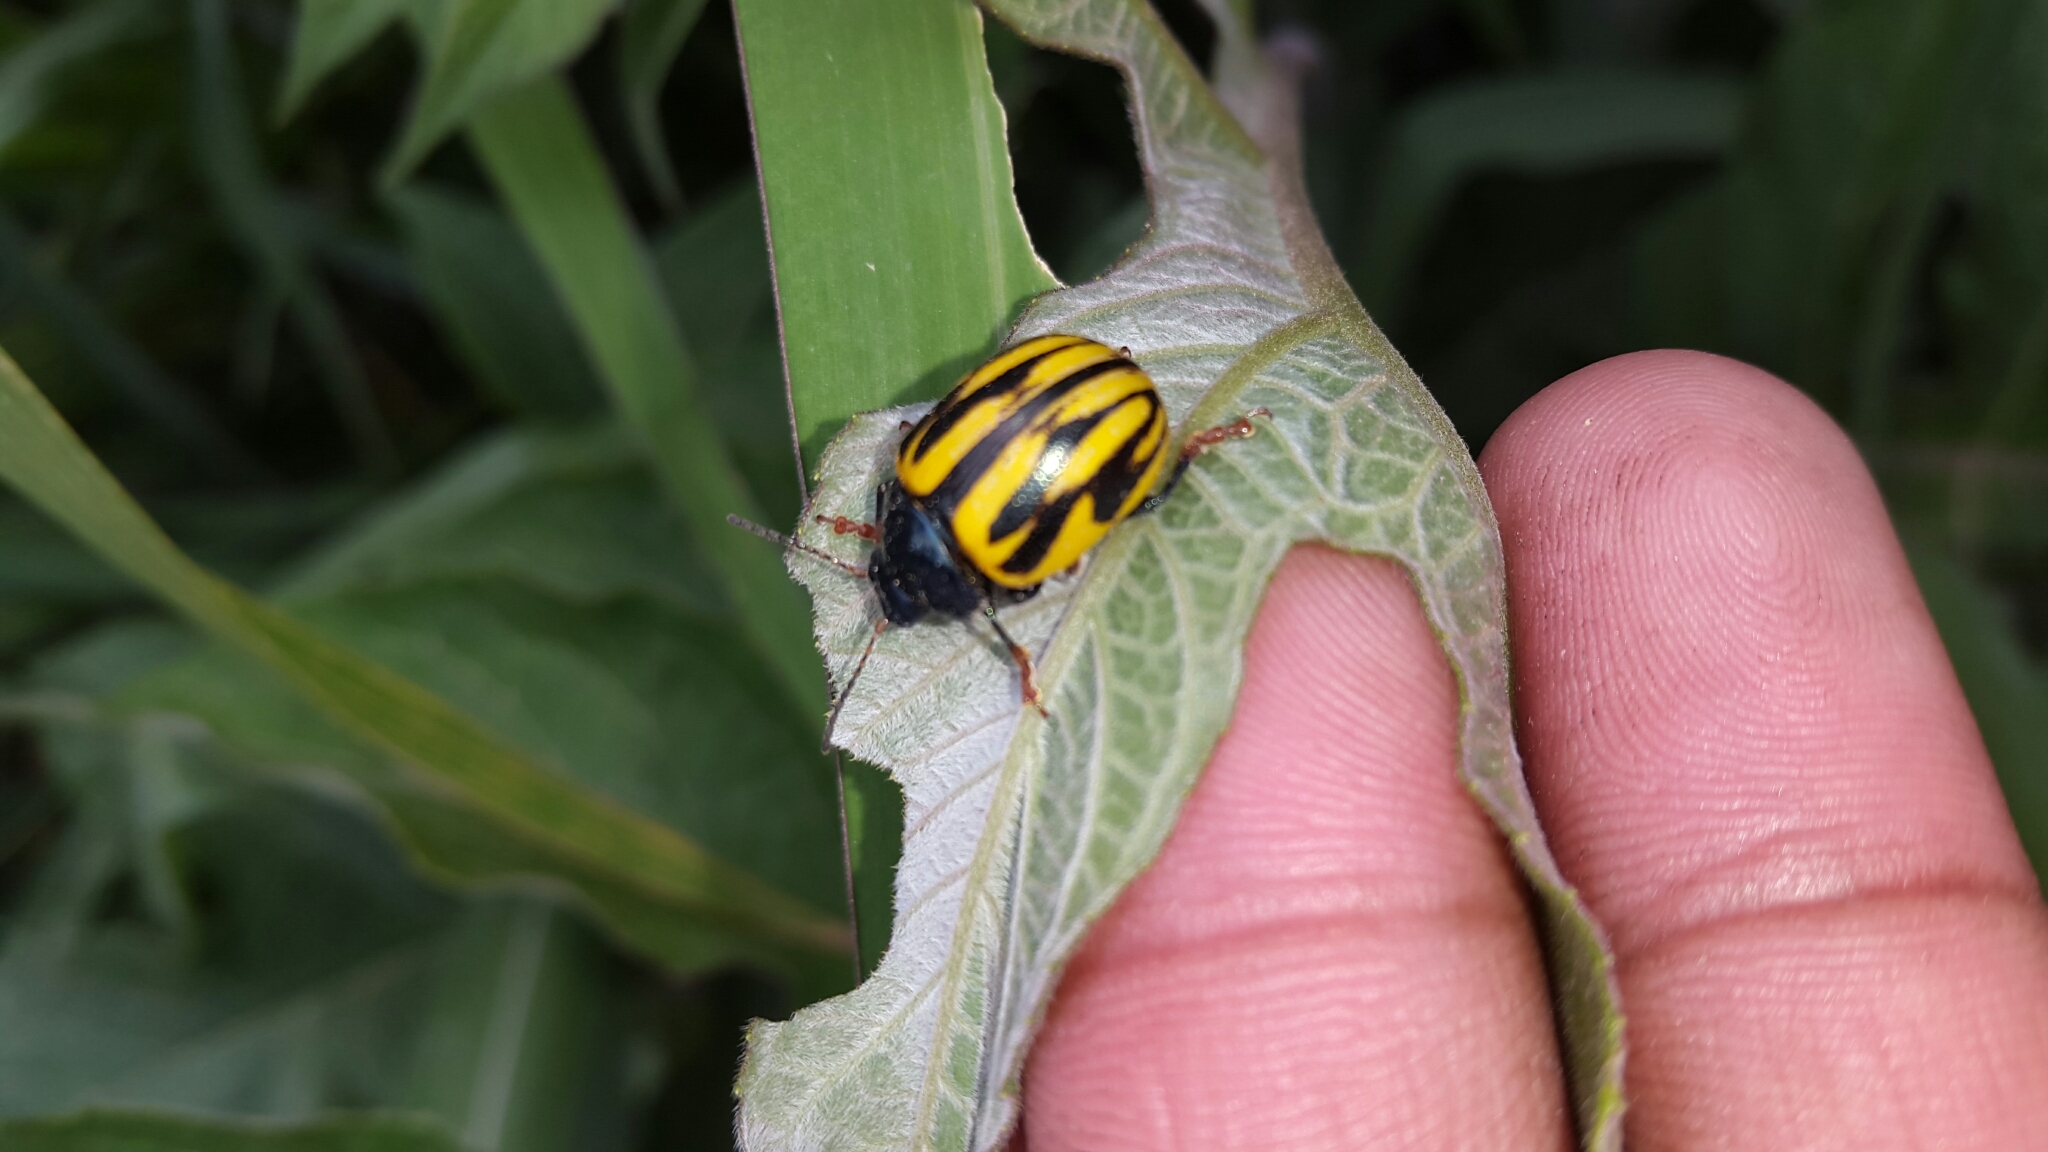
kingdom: Animalia
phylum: Arthropoda
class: Insecta
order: Coleoptera
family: Chrysomelidae
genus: Leptinotarsa
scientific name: Leptinotarsa
